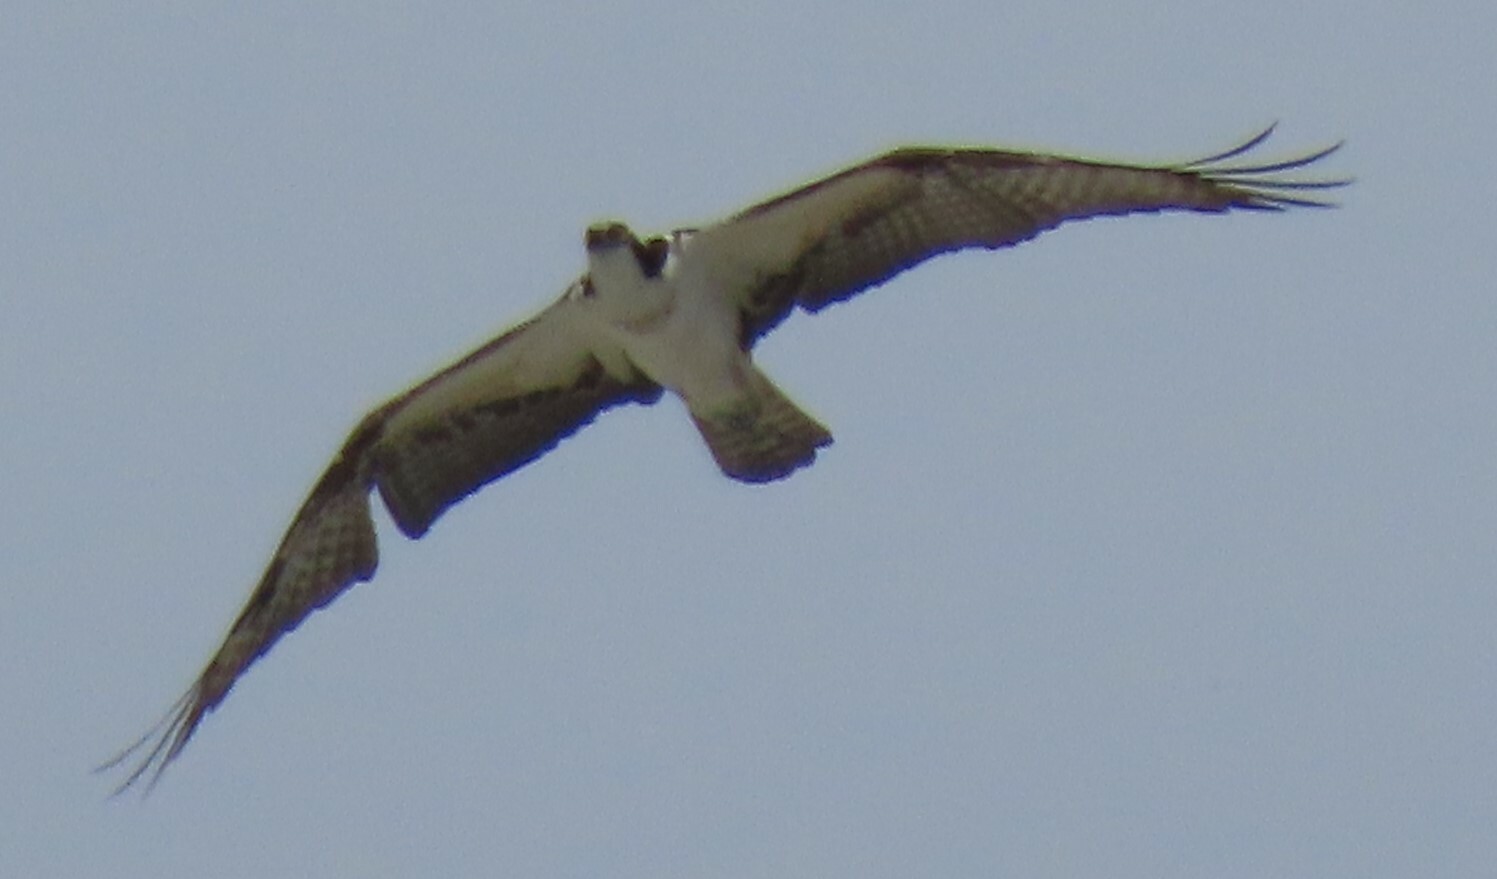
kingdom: Animalia
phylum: Chordata
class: Aves
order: Accipitriformes
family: Pandionidae
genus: Pandion
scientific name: Pandion haliaetus
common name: Osprey
